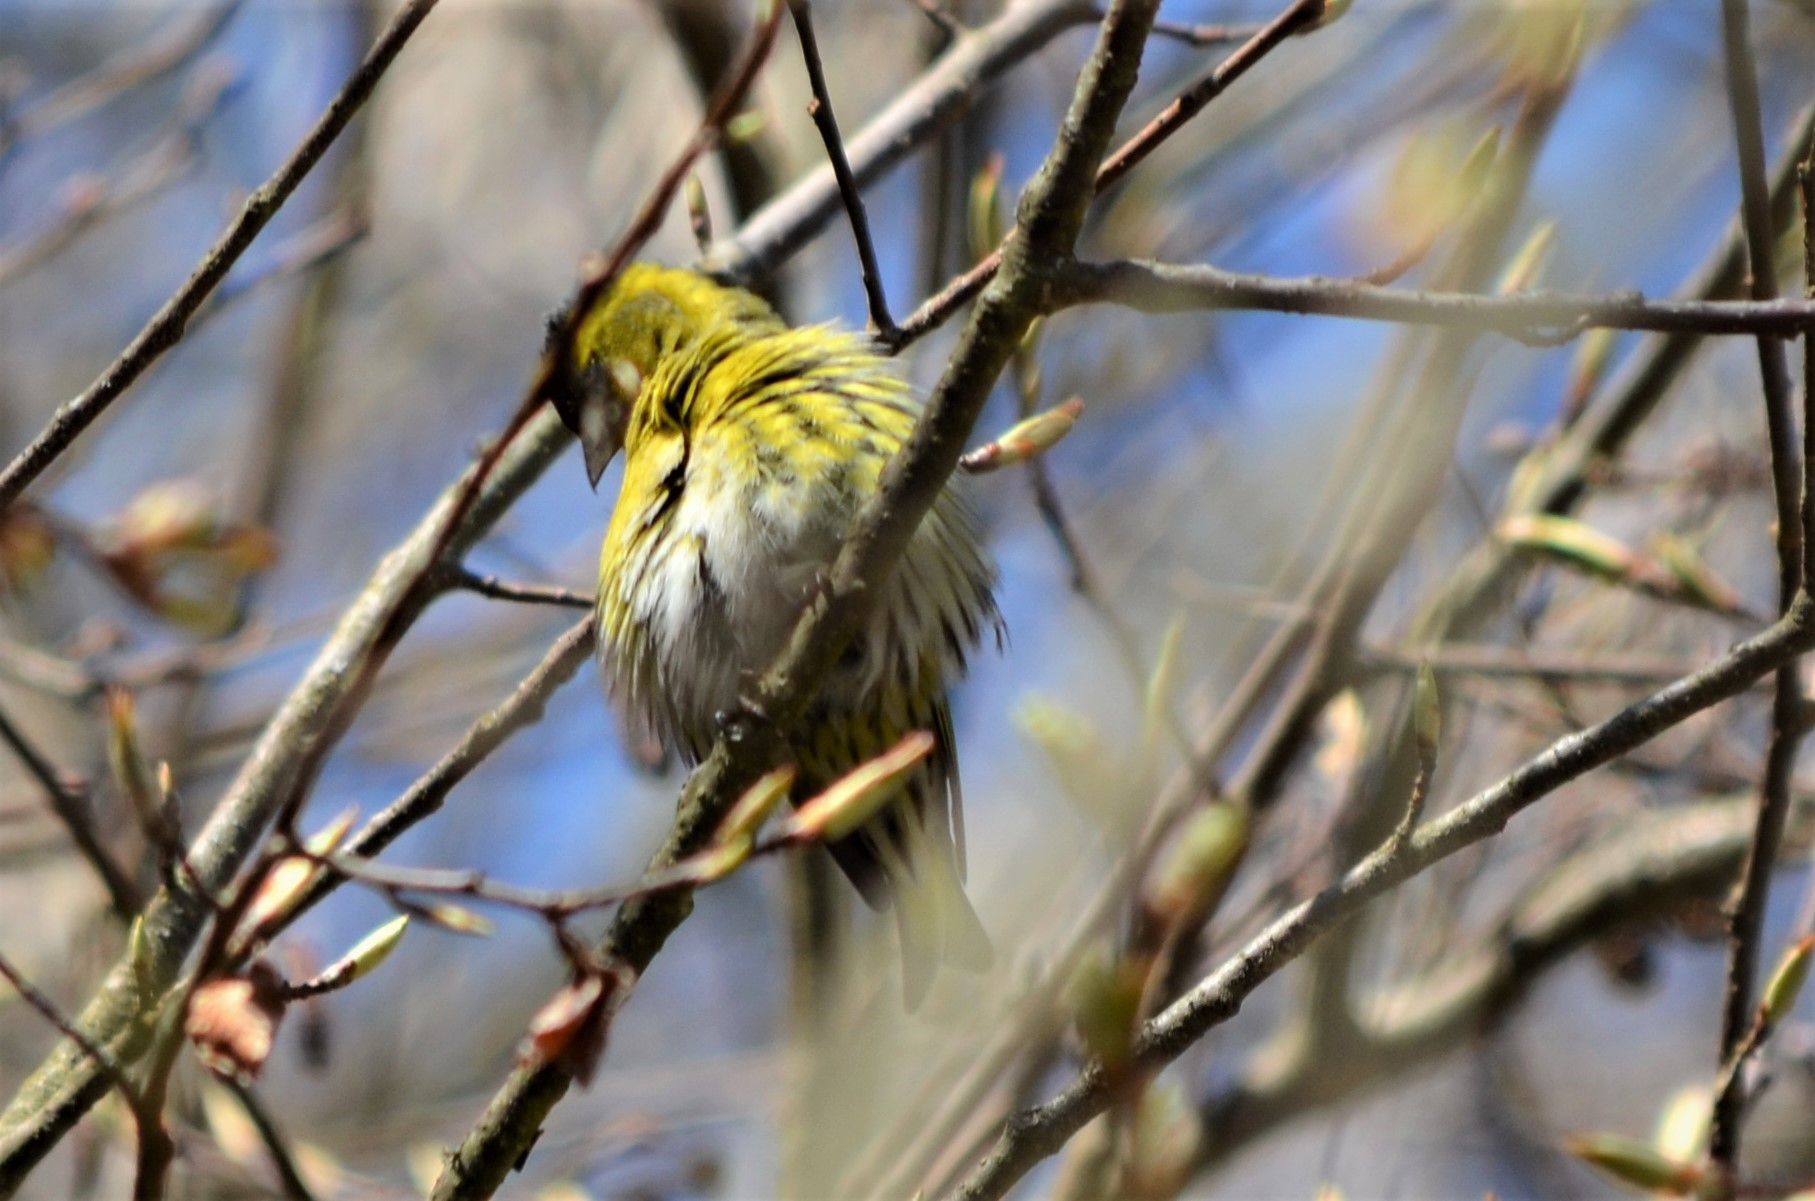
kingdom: Animalia
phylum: Chordata
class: Aves
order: Passeriformes
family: Fringillidae
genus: Spinus
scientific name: Spinus spinus
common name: Eurasian siskin
